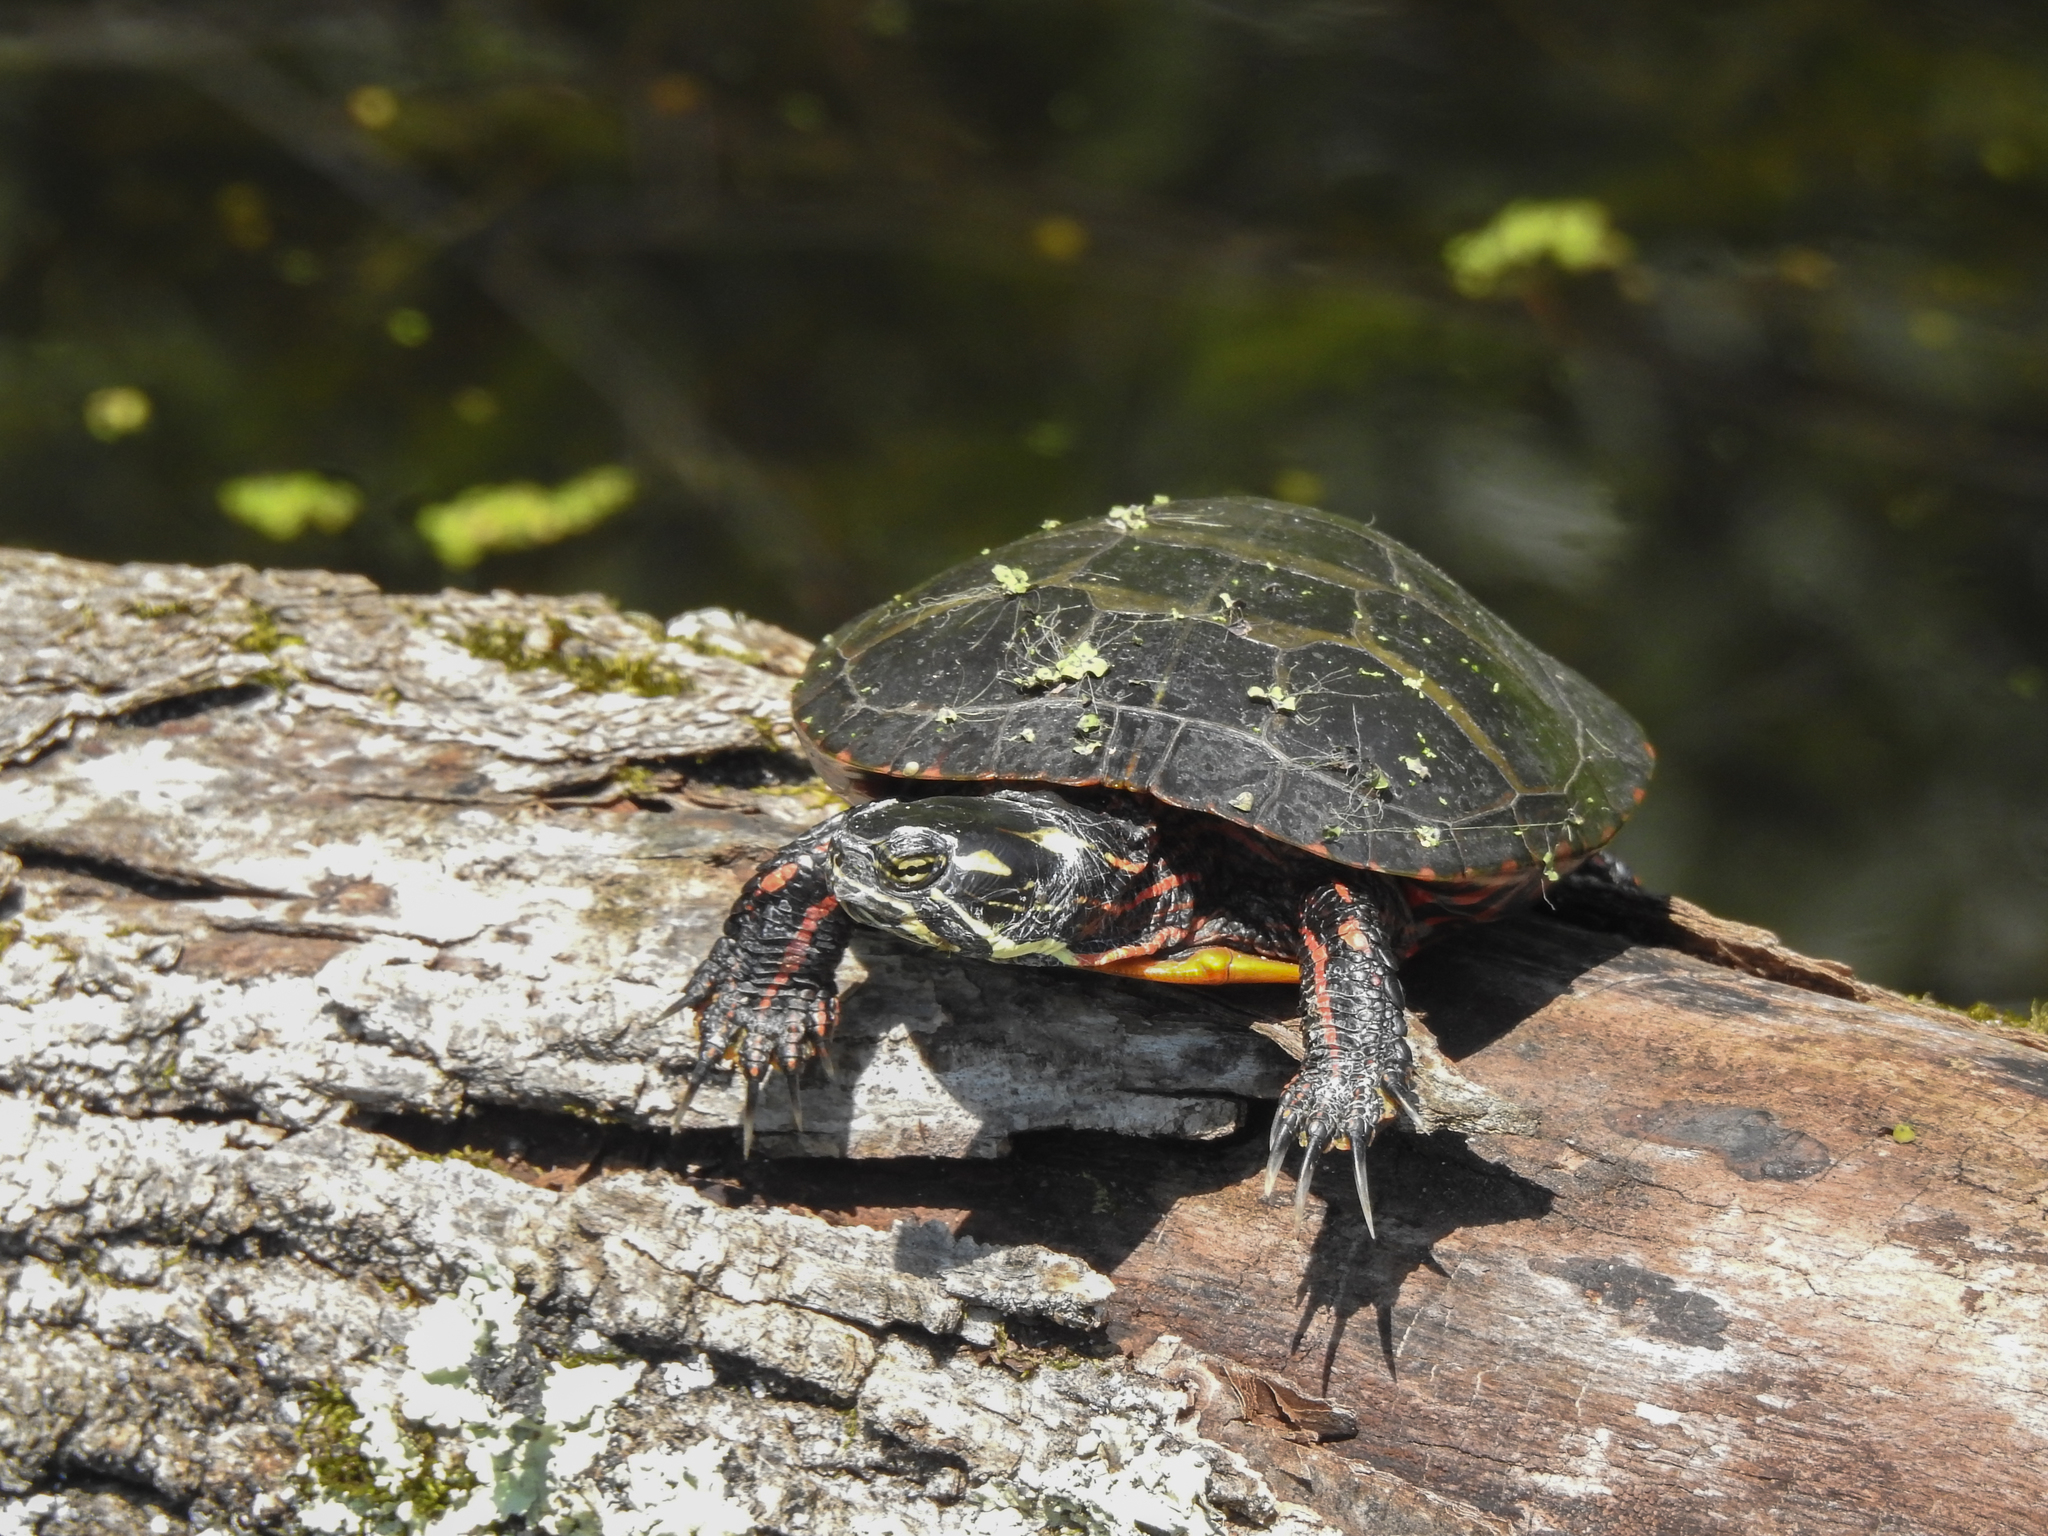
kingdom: Animalia
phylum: Chordata
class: Testudines
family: Emydidae
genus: Chrysemys
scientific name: Chrysemys picta
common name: Painted turtle
